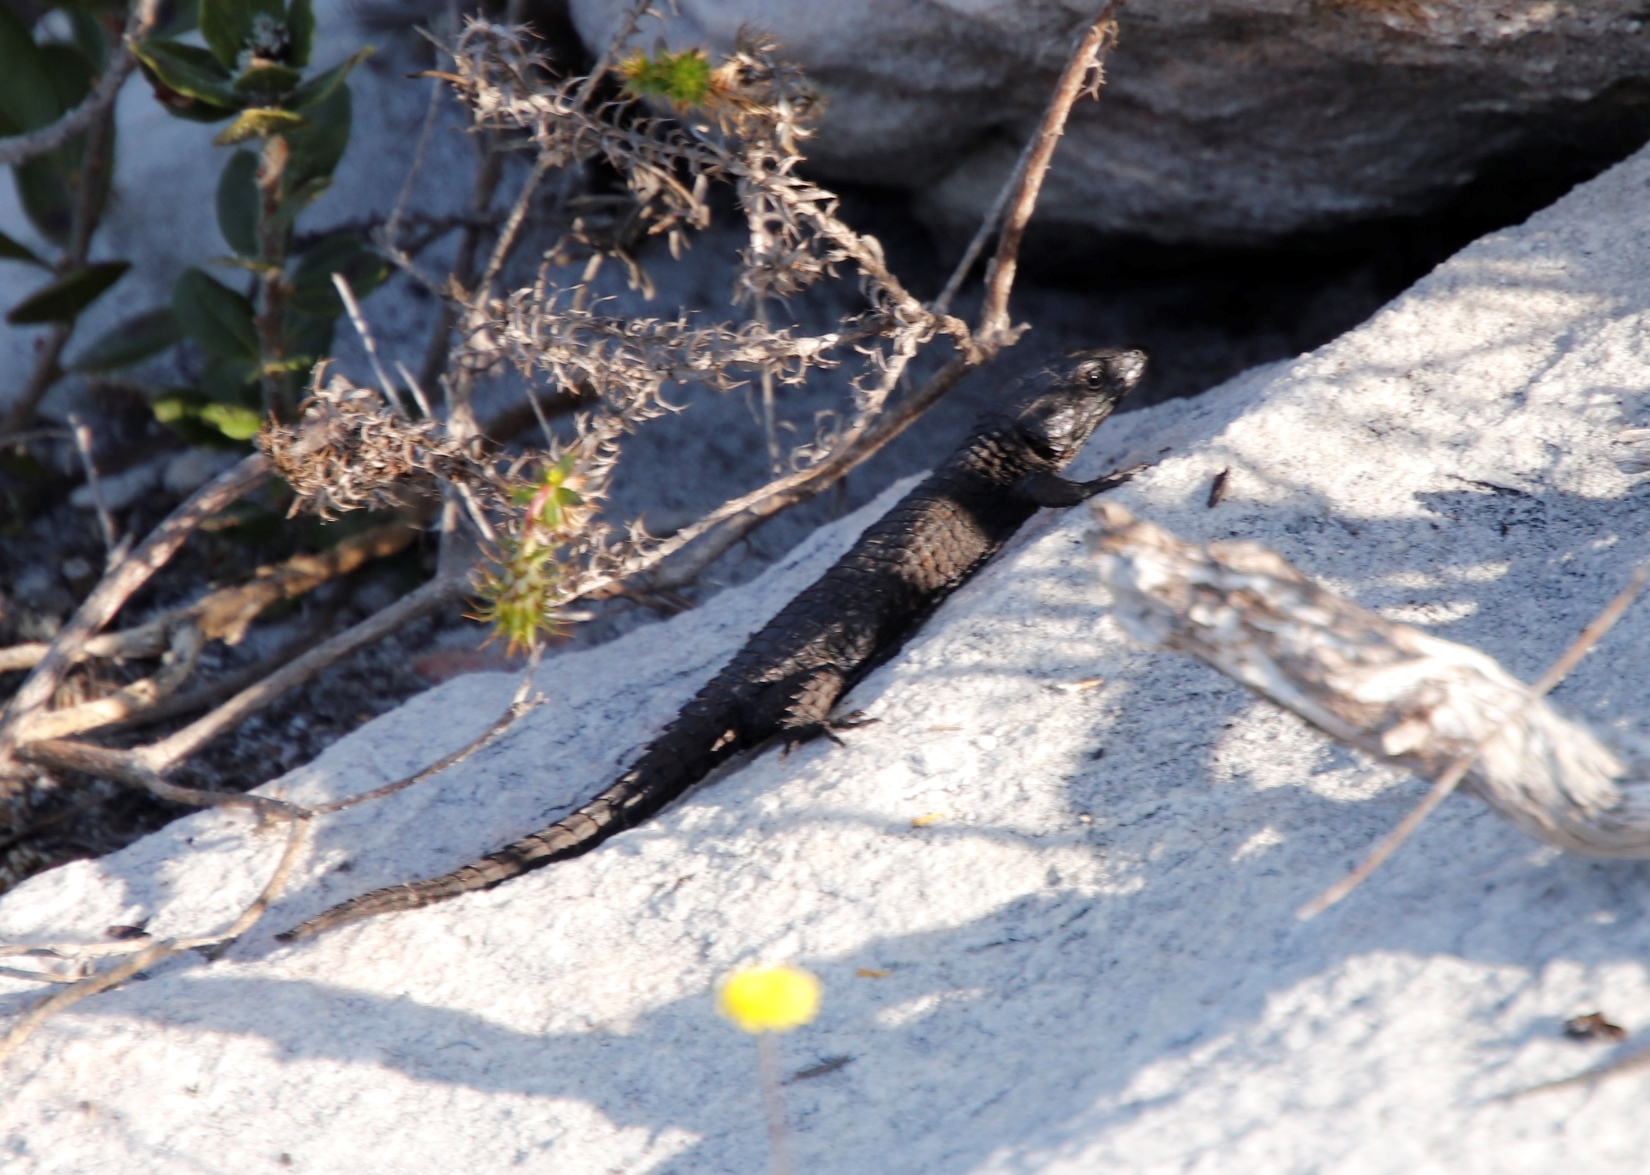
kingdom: Animalia
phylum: Chordata
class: Squamata
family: Cordylidae
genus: Cordylus
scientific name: Cordylus niger
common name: Black girdled lizard
